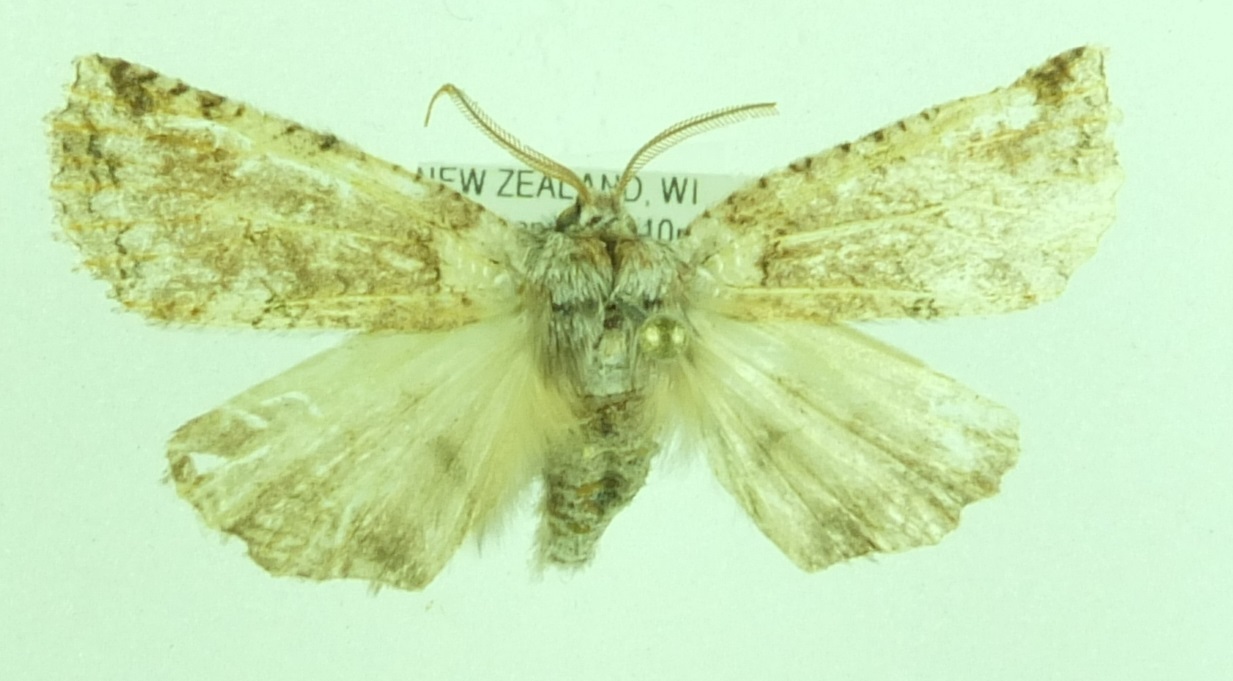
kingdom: Animalia
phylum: Arthropoda
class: Insecta
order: Lepidoptera
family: Geometridae
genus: Declana
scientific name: Declana floccosa
